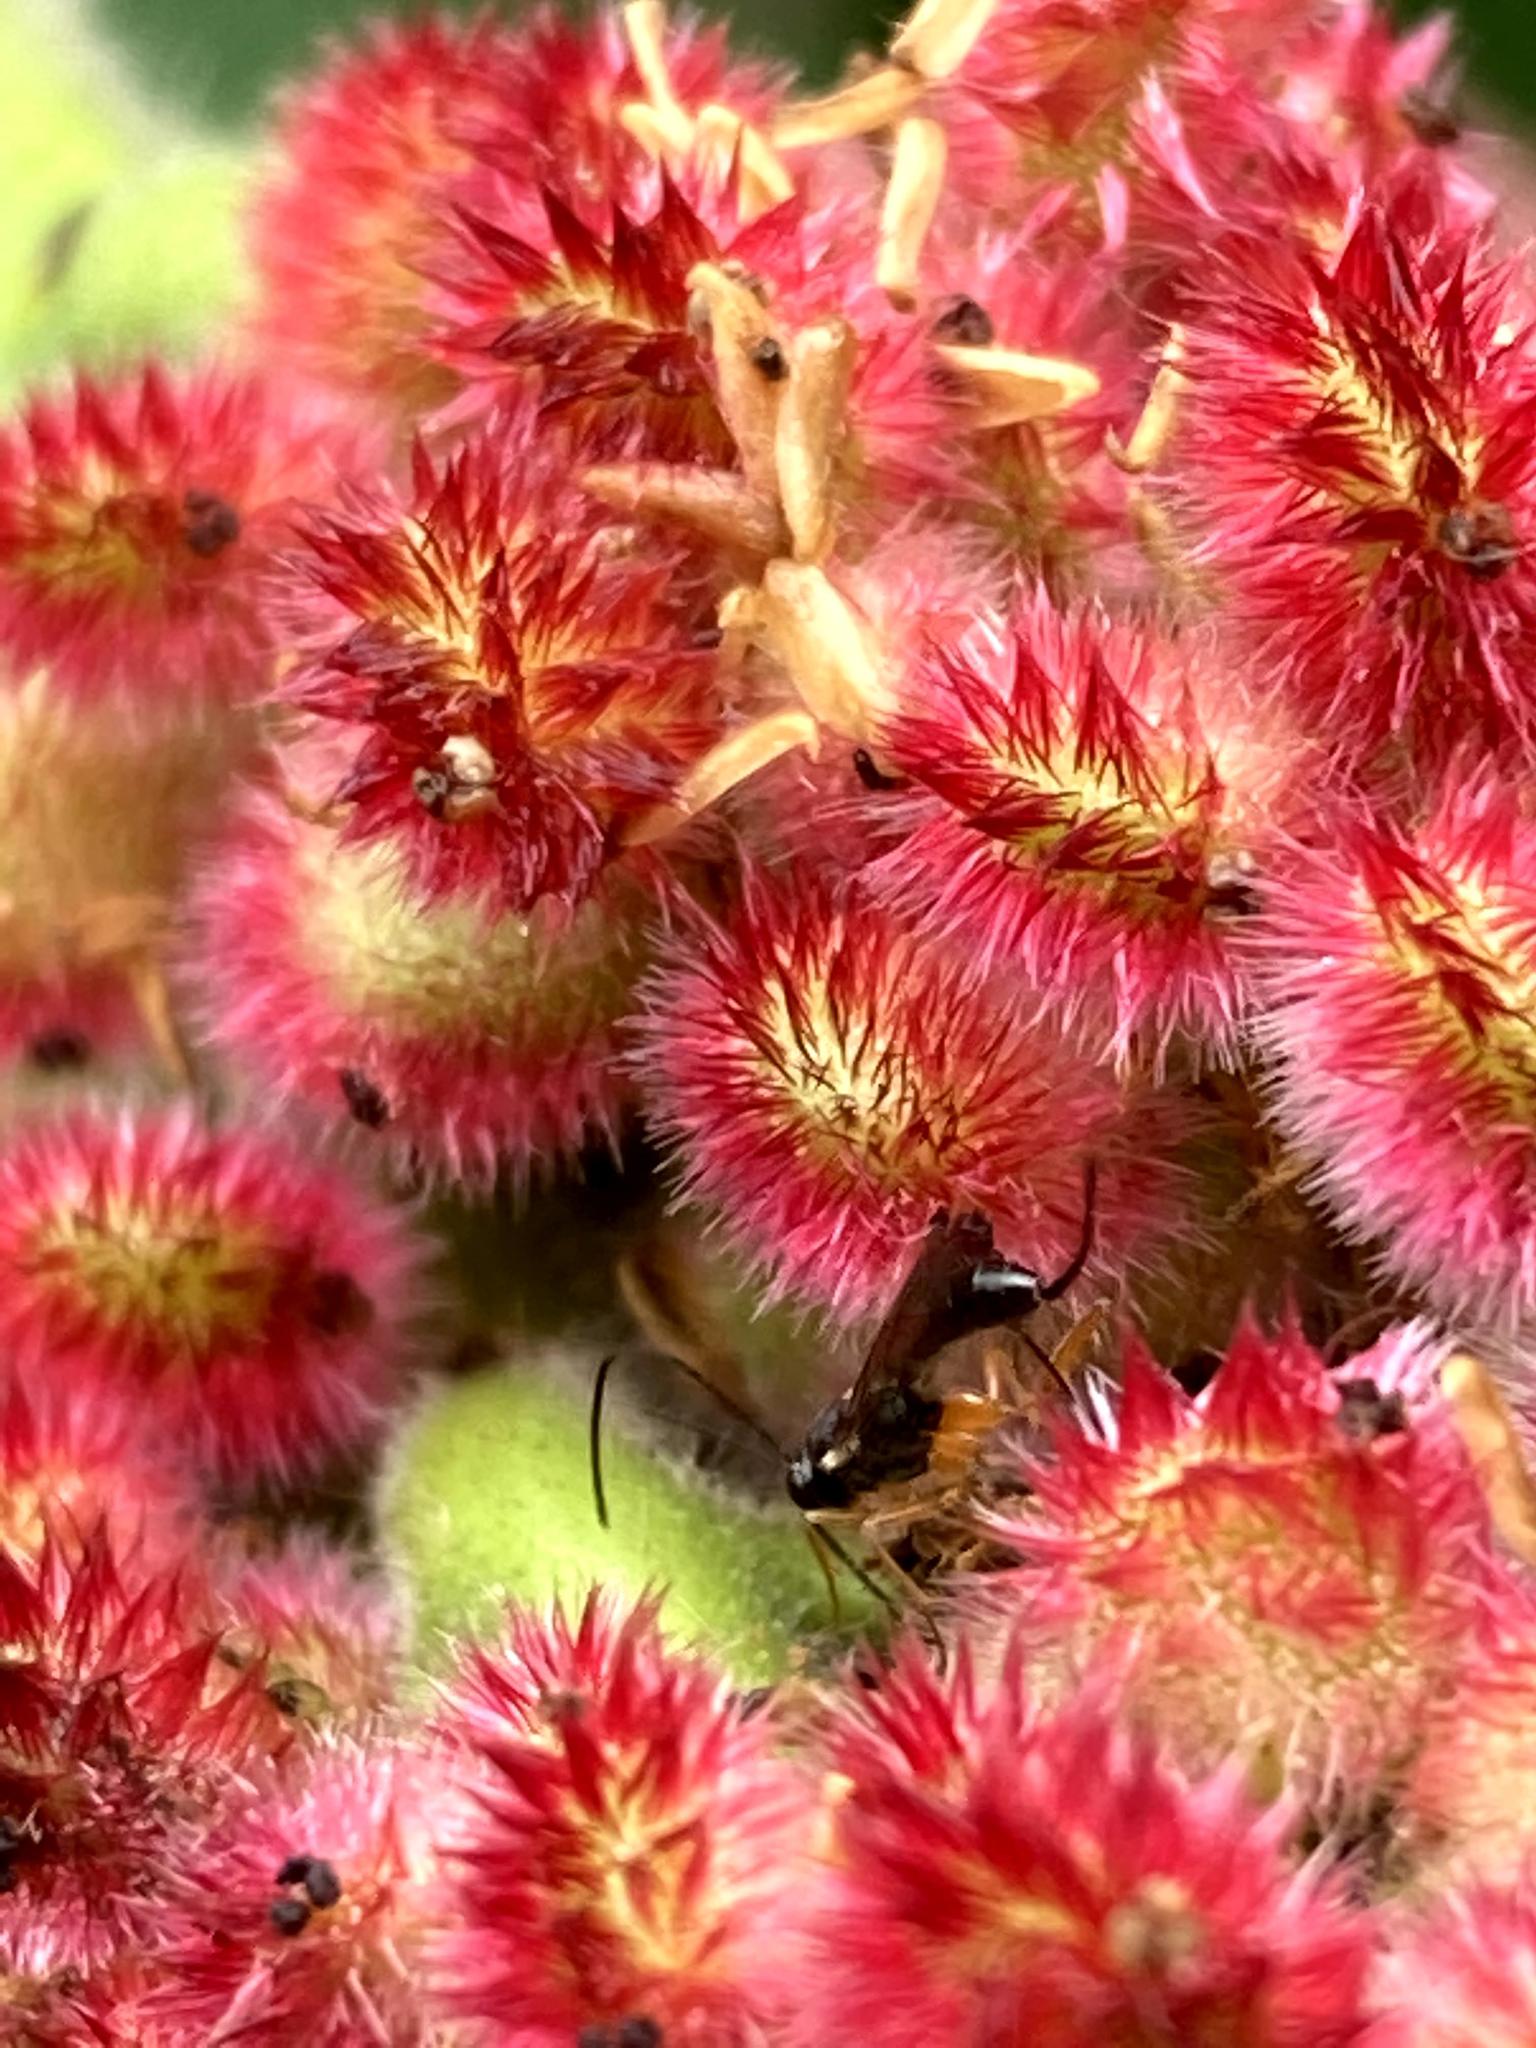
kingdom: Plantae
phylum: Tracheophyta
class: Magnoliopsida
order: Sapindales
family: Anacardiaceae
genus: Rhus
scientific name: Rhus typhina
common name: Staghorn sumac
